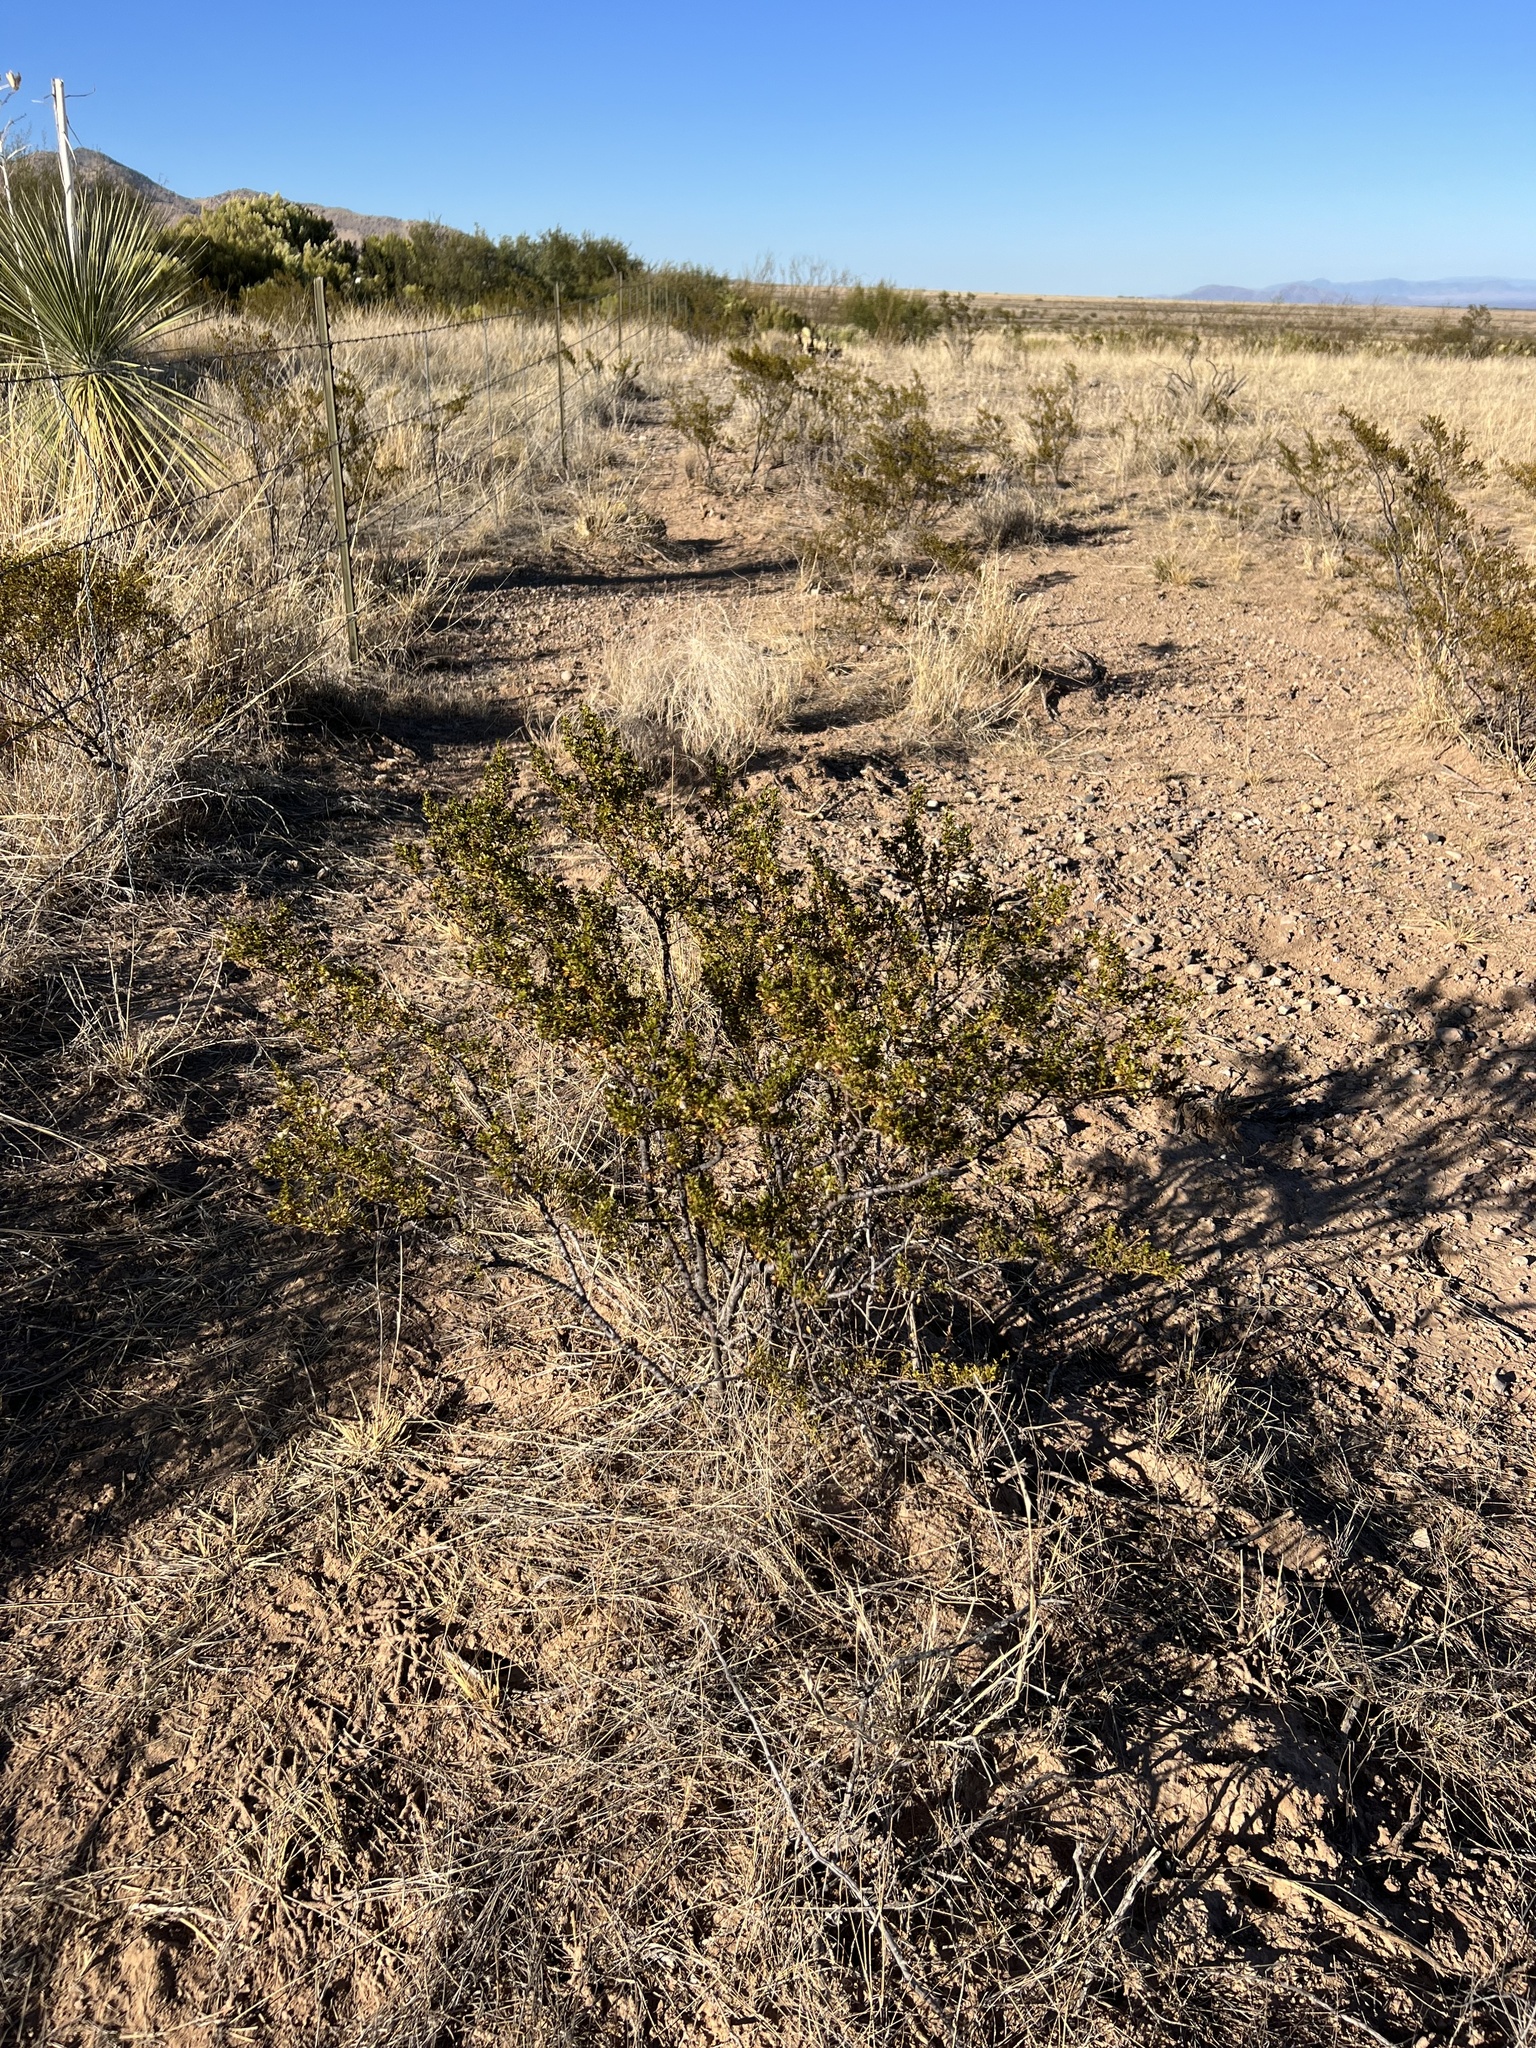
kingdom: Plantae
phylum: Tracheophyta
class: Magnoliopsida
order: Zygophyllales
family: Zygophyllaceae
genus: Larrea
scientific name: Larrea tridentata
